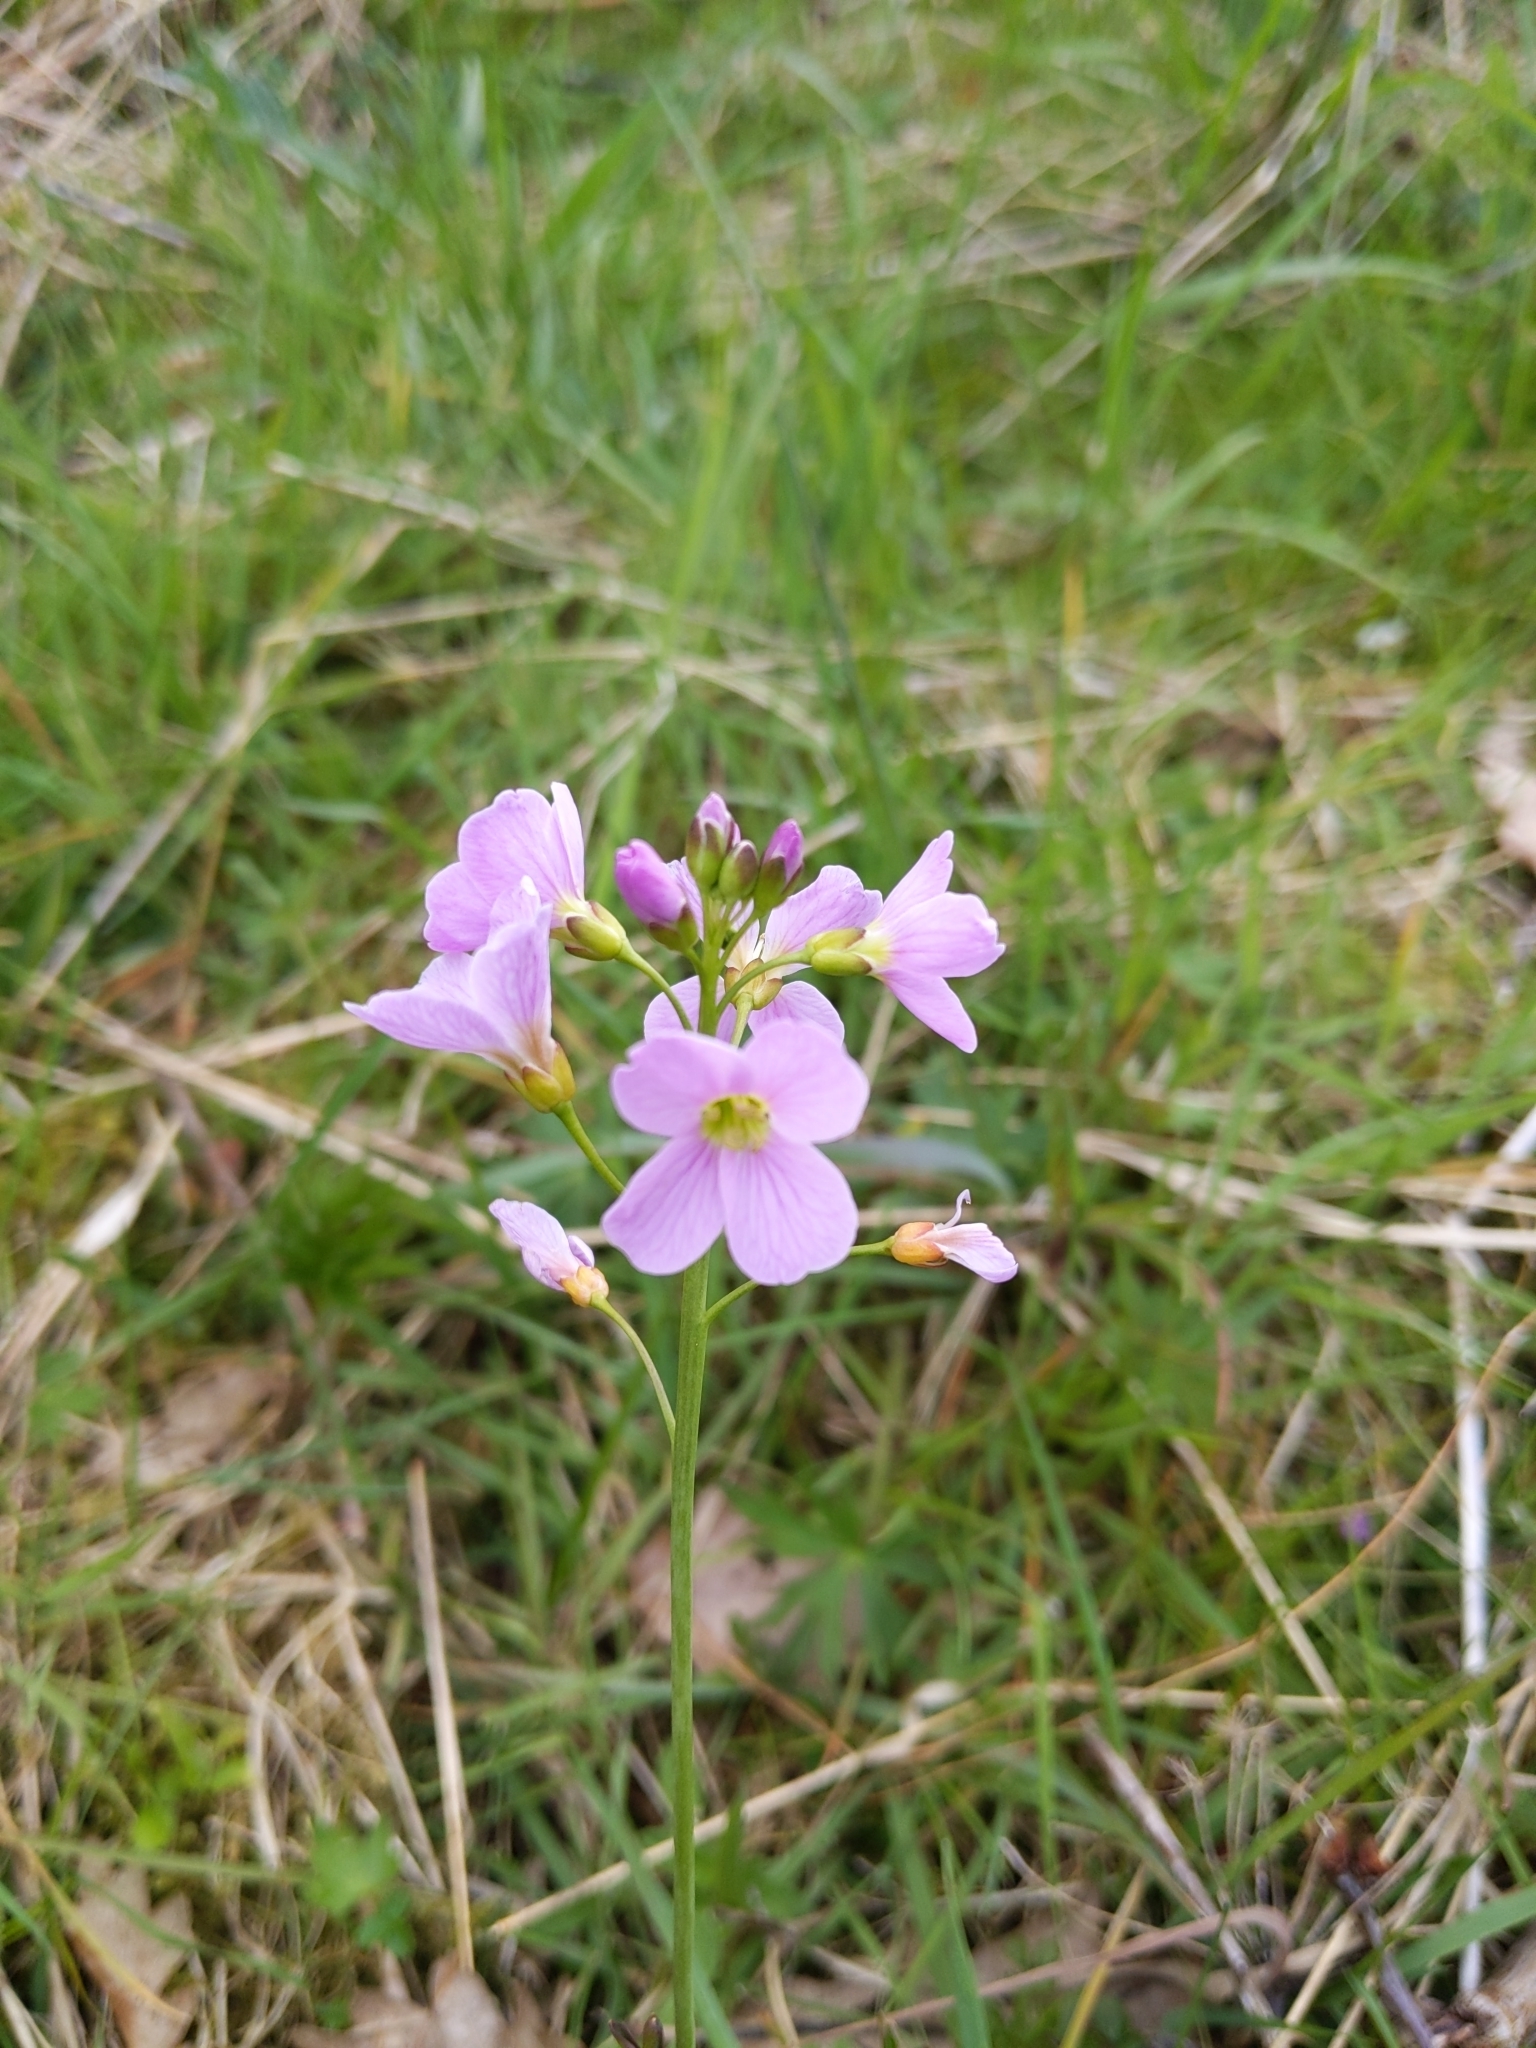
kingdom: Plantae
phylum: Tracheophyta
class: Magnoliopsida
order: Brassicales
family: Brassicaceae
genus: Cardamine
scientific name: Cardamine pratensis
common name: Cuckoo flower
